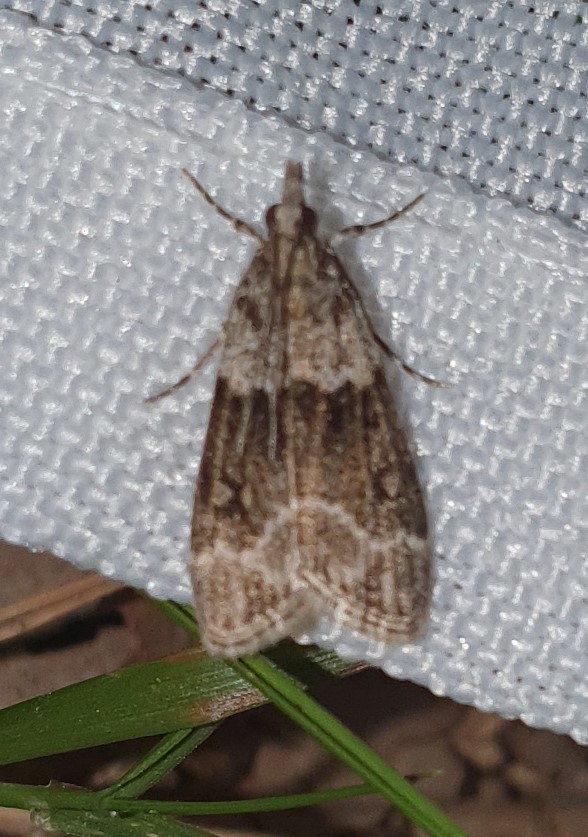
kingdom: Animalia
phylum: Arthropoda
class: Insecta
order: Lepidoptera
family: Crambidae
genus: Eudonia
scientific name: Eudonia mercurella
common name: Small grey
